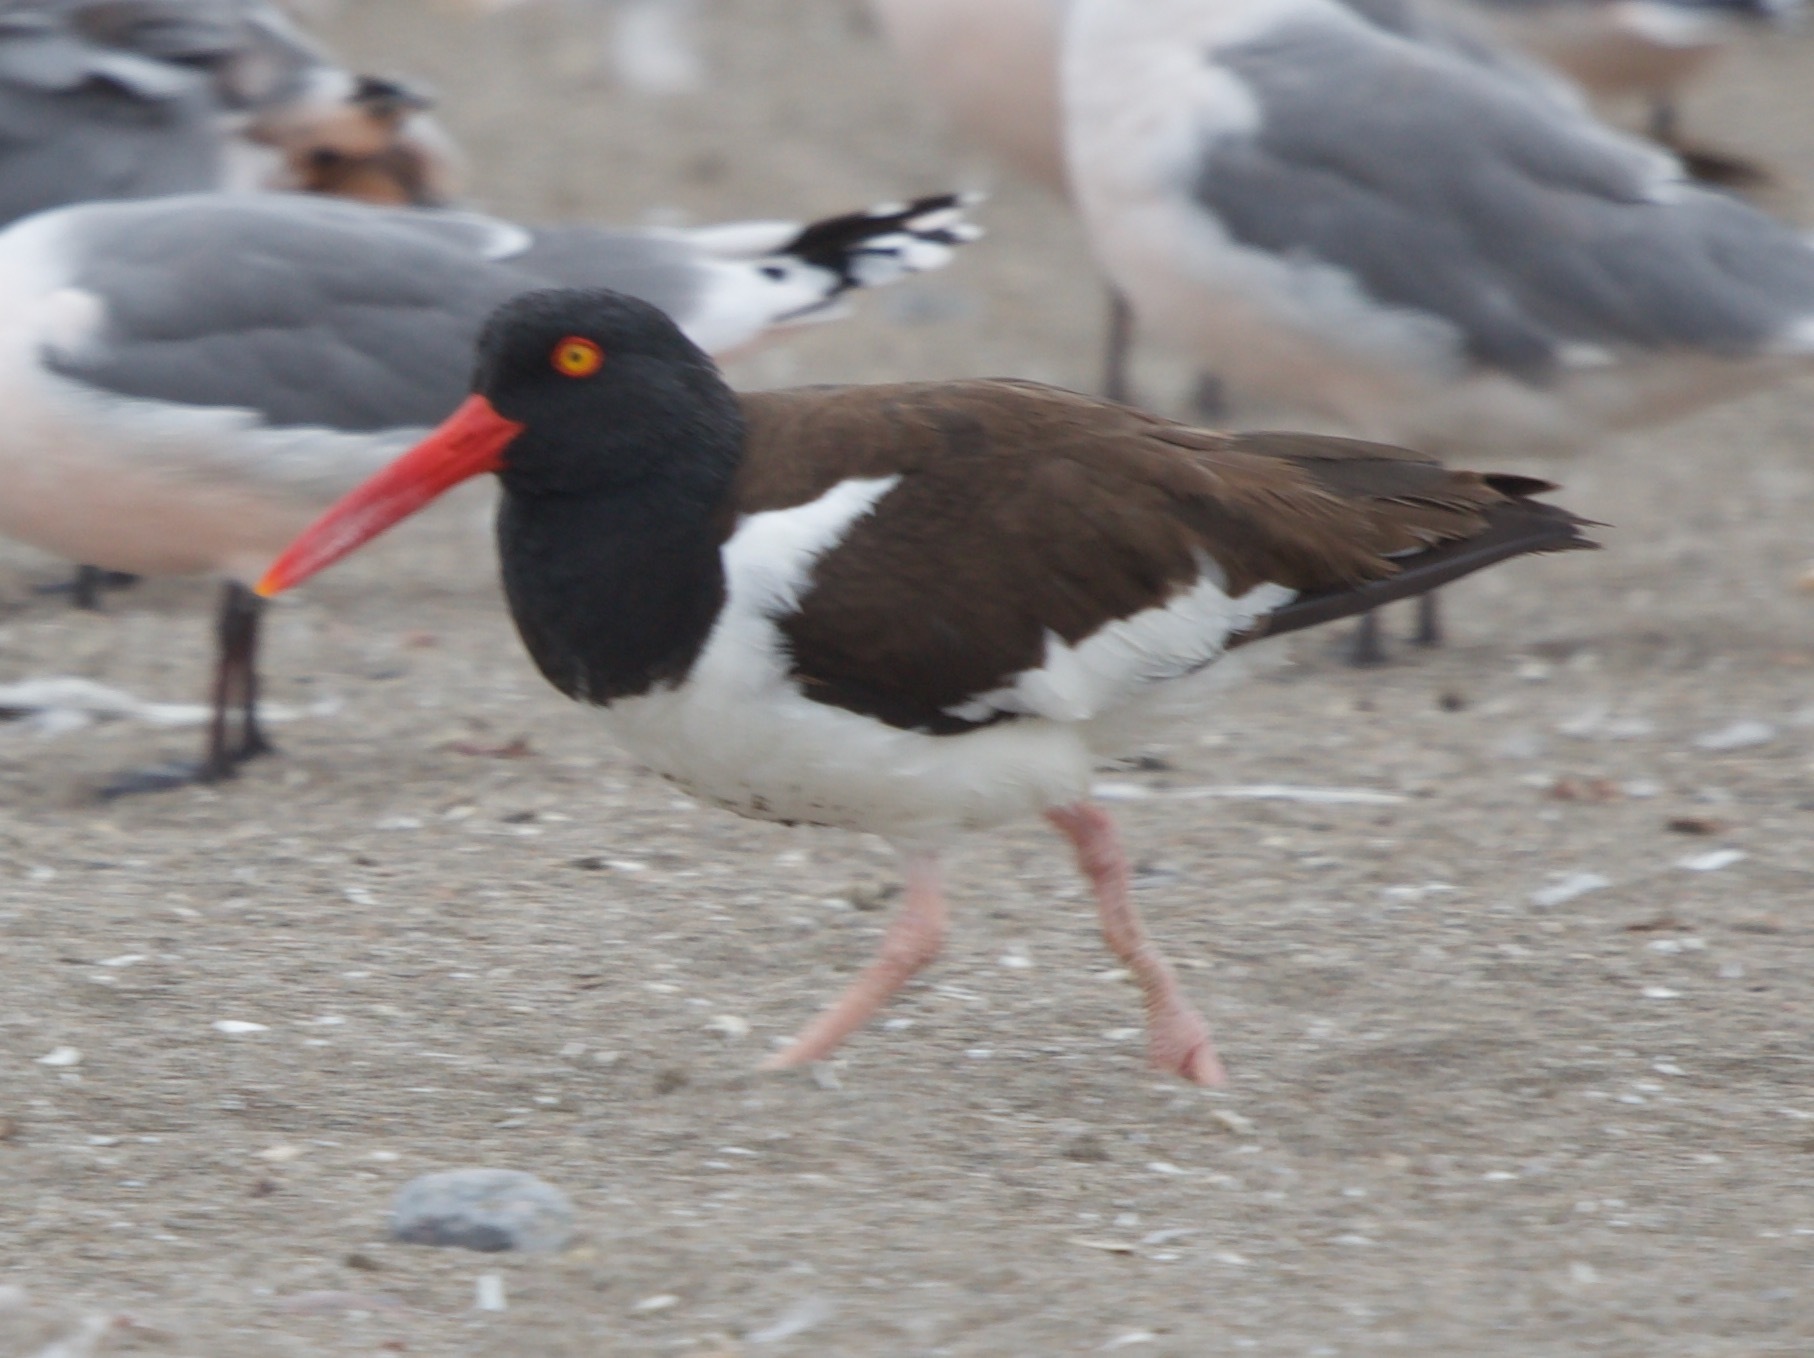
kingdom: Animalia
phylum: Chordata
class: Aves
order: Charadriiformes
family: Haematopodidae
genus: Haematopus
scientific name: Haematopus palliatus
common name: American oystercatcher
